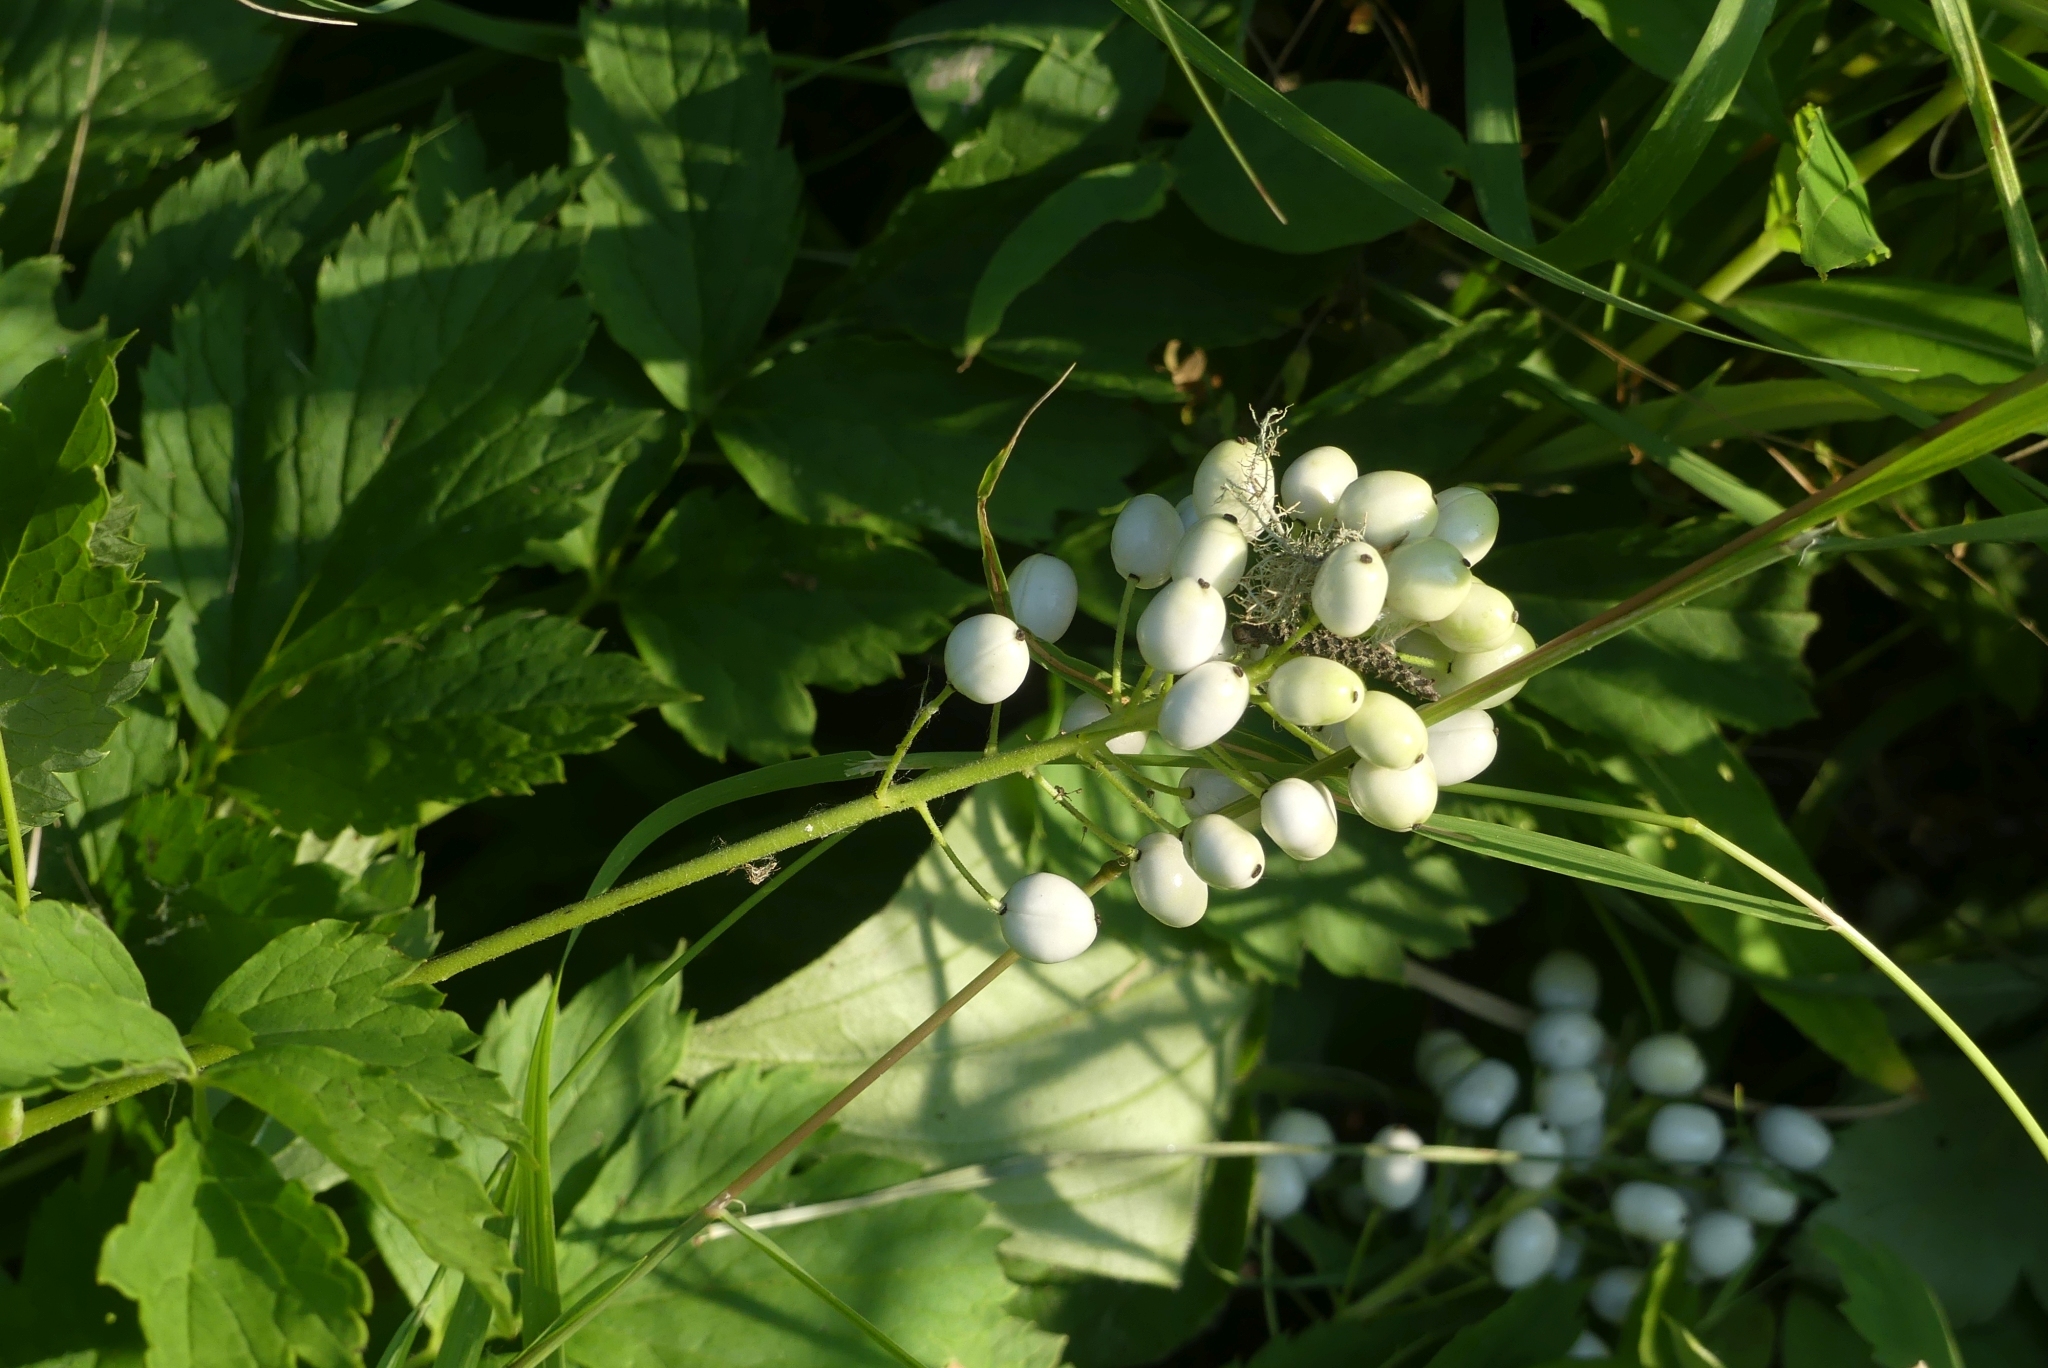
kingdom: Plantae
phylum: Tracheophyta
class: Magnoliopsida
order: Ranunculales
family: Ranunculaceae
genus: Actaea
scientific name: Actaea rubra
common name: Red baneberry
